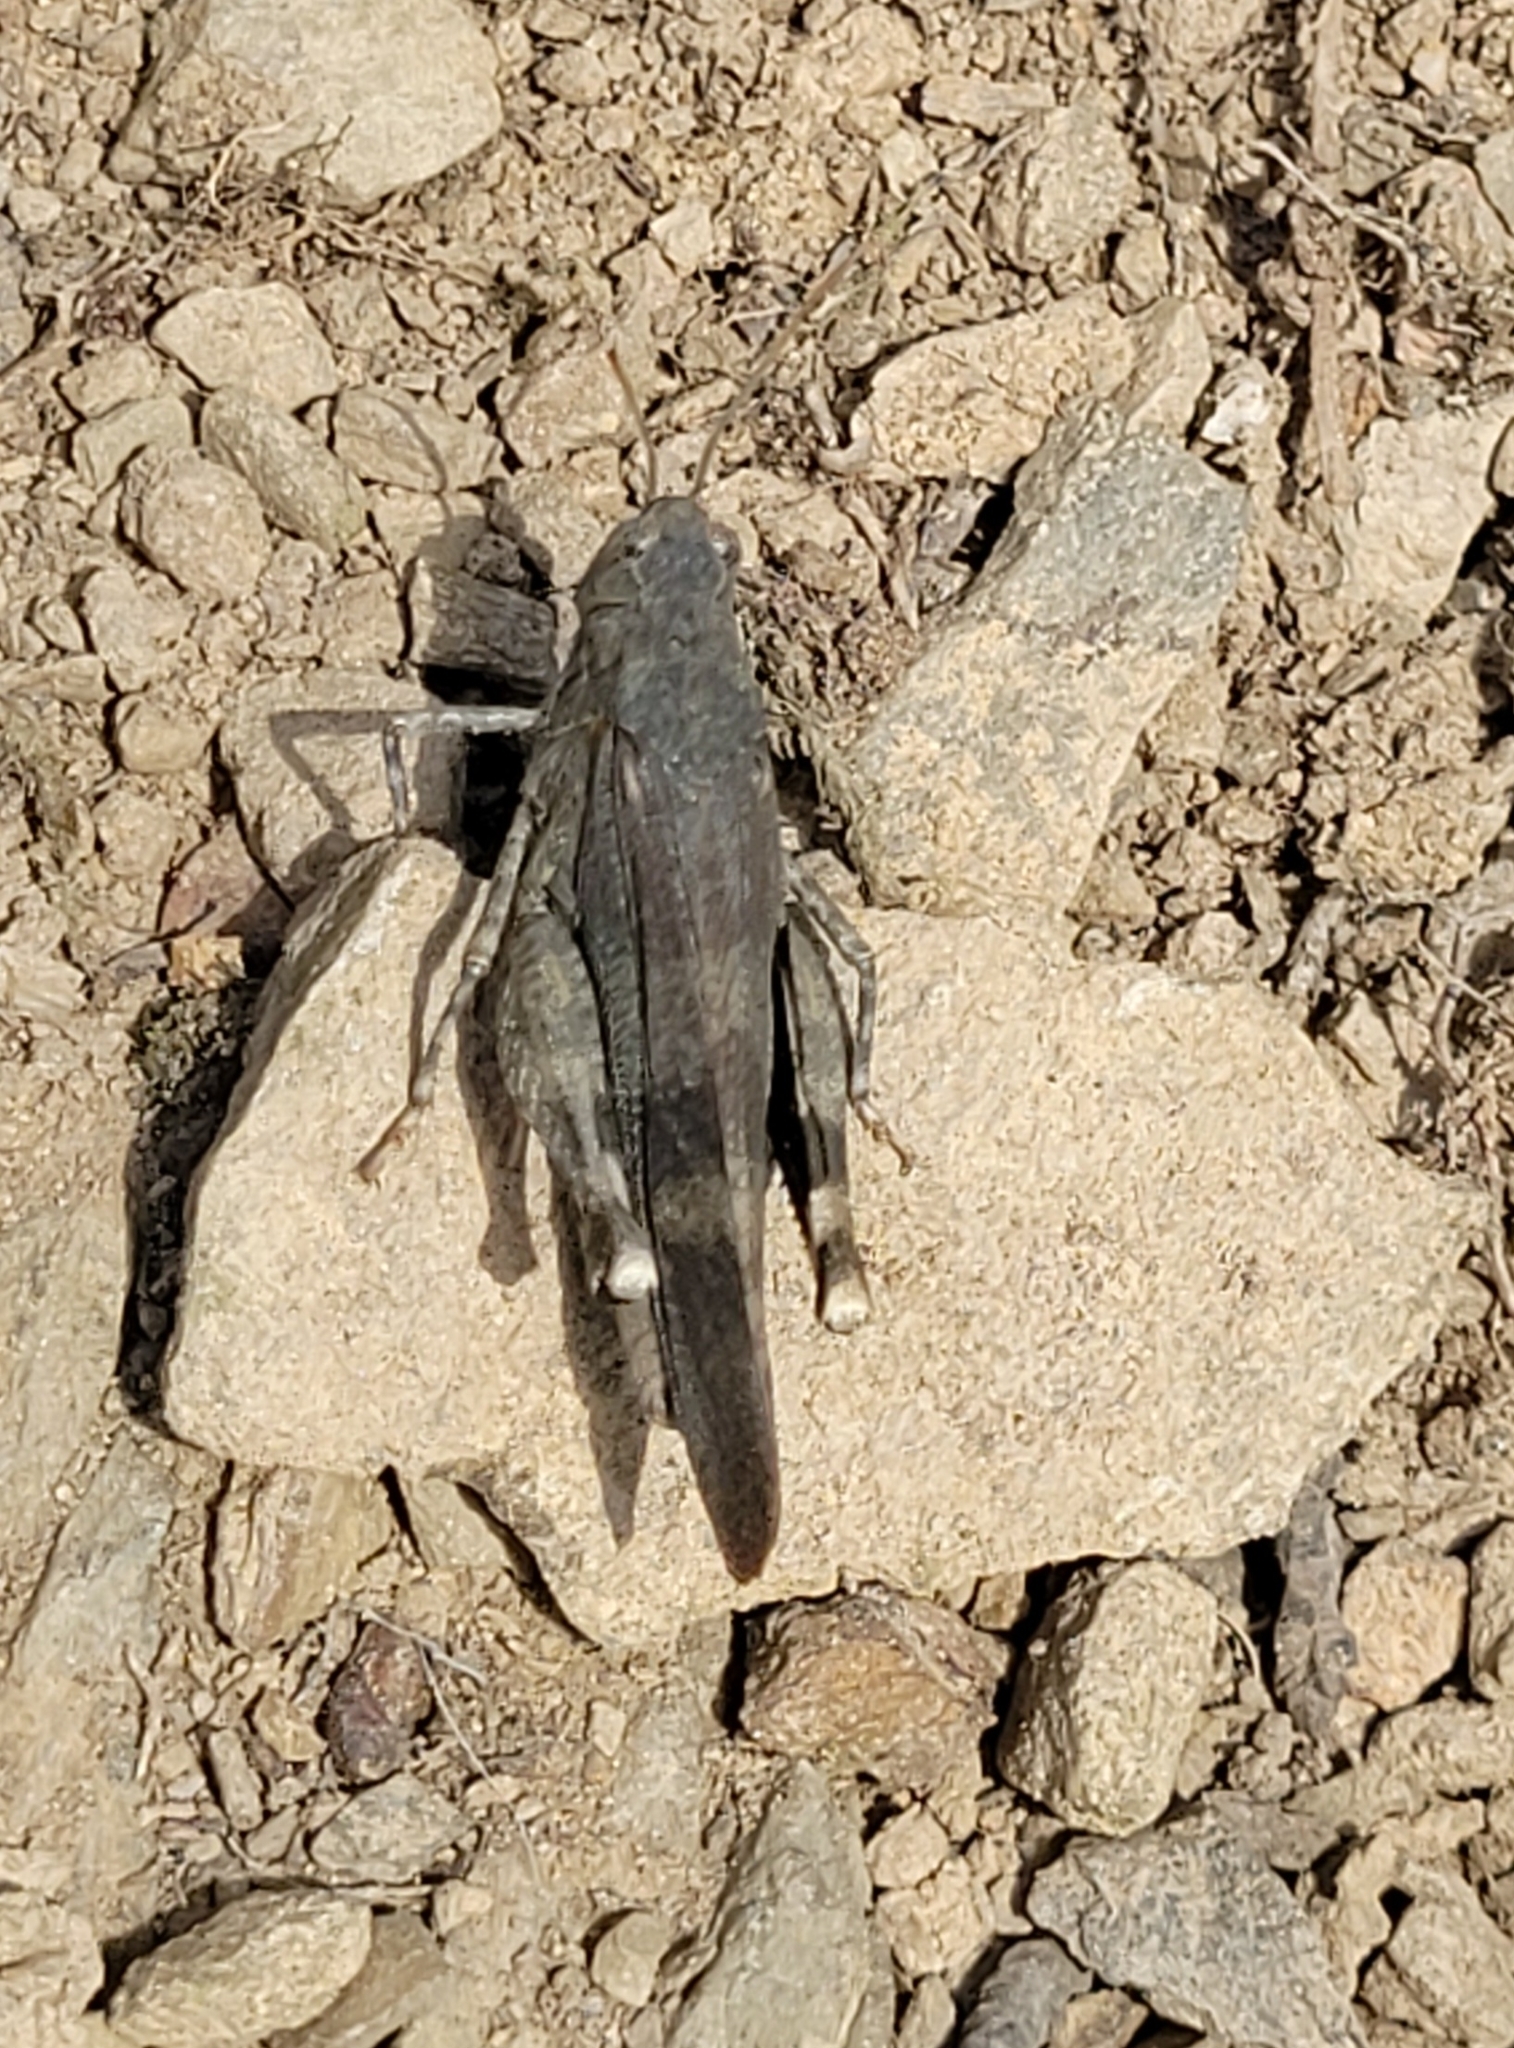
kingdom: Animalia
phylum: Arthropoda
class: Insecta
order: Orthoptera
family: Acrididae
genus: Oedipoda
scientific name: Oedipoda germanica
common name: Red band-winged grasshopper
